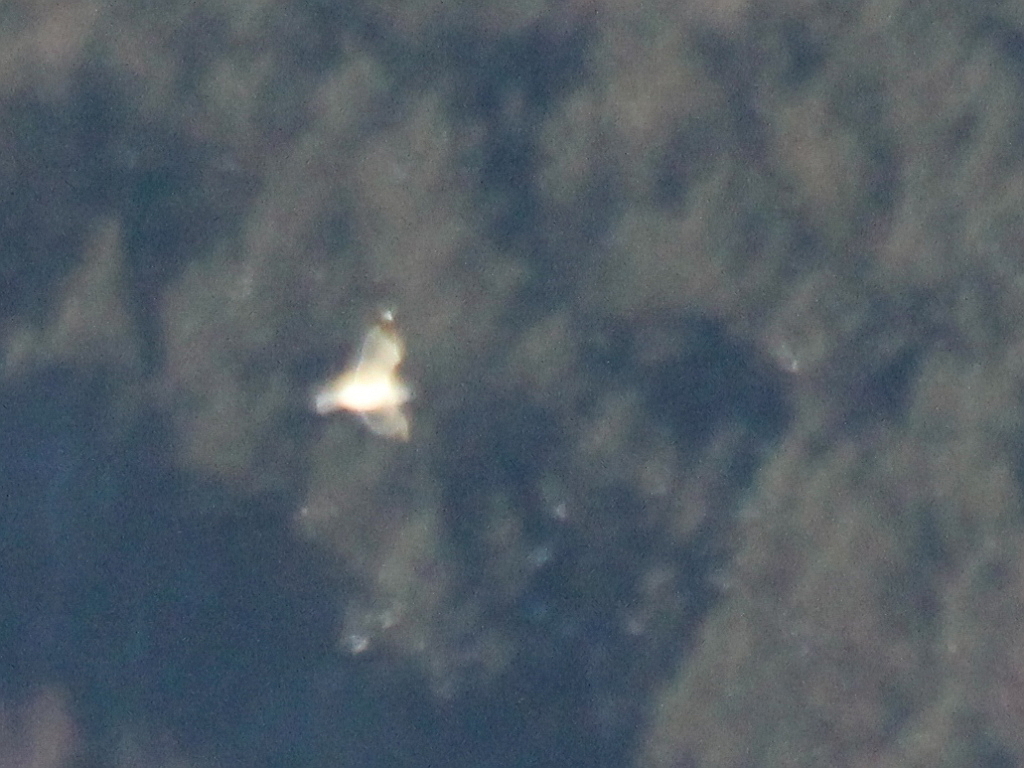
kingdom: Animalia
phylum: Chordata
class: Aves
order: Charadriiformes
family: Laridae
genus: Larus
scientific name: Larus canus
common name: Mew gull
